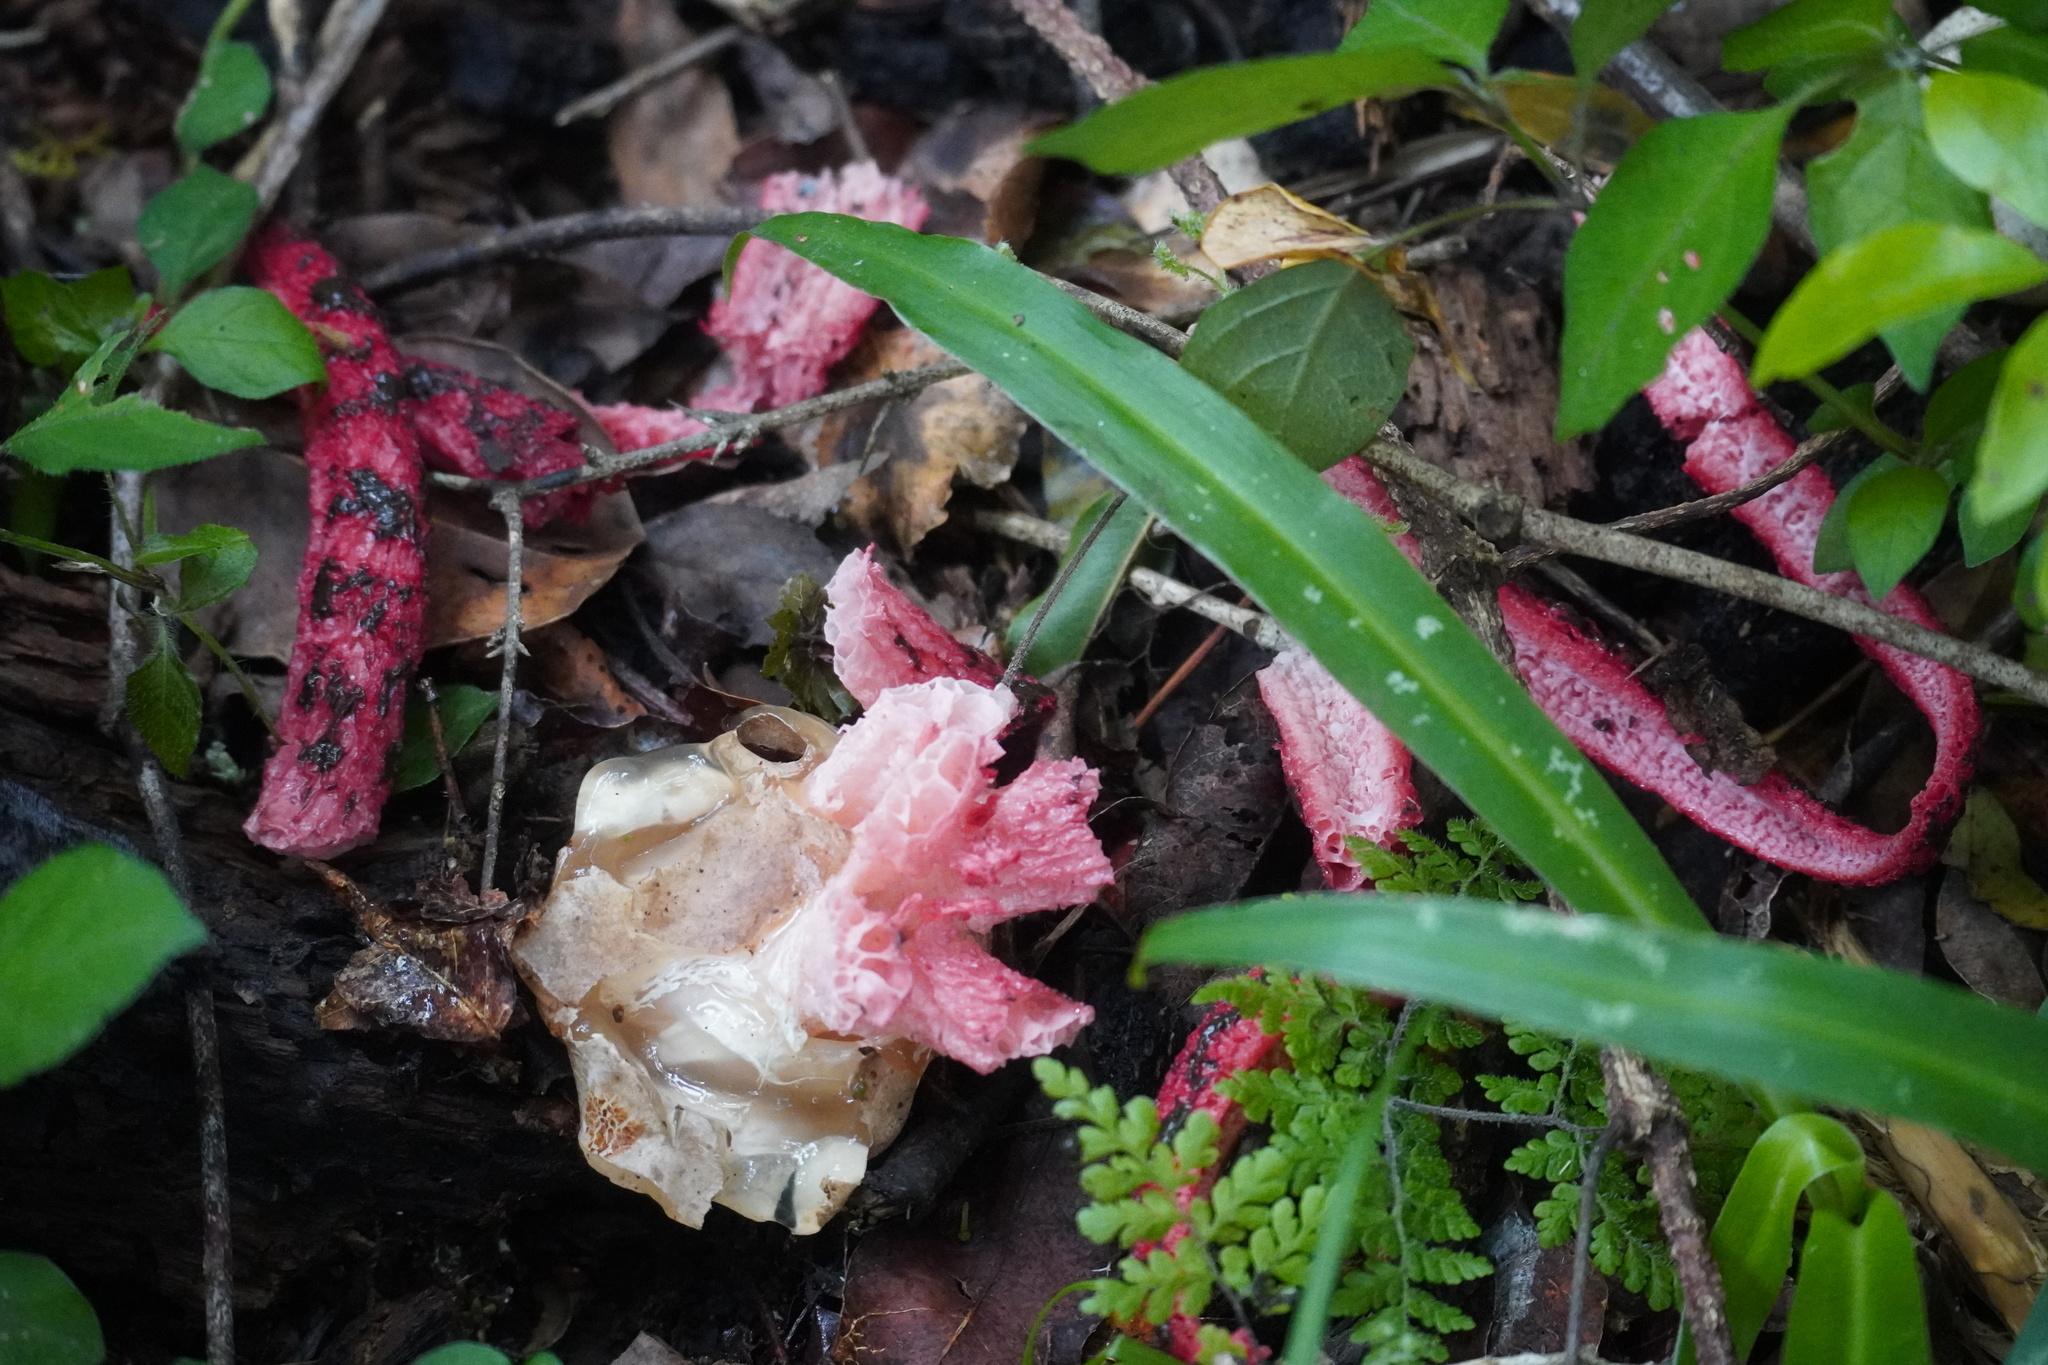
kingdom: Fungi
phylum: Basidiomycota
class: Agaricomycetes
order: Phallales
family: Phallaceae
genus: Clathrus
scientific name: Clathrus archeri
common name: Devil's fingers
